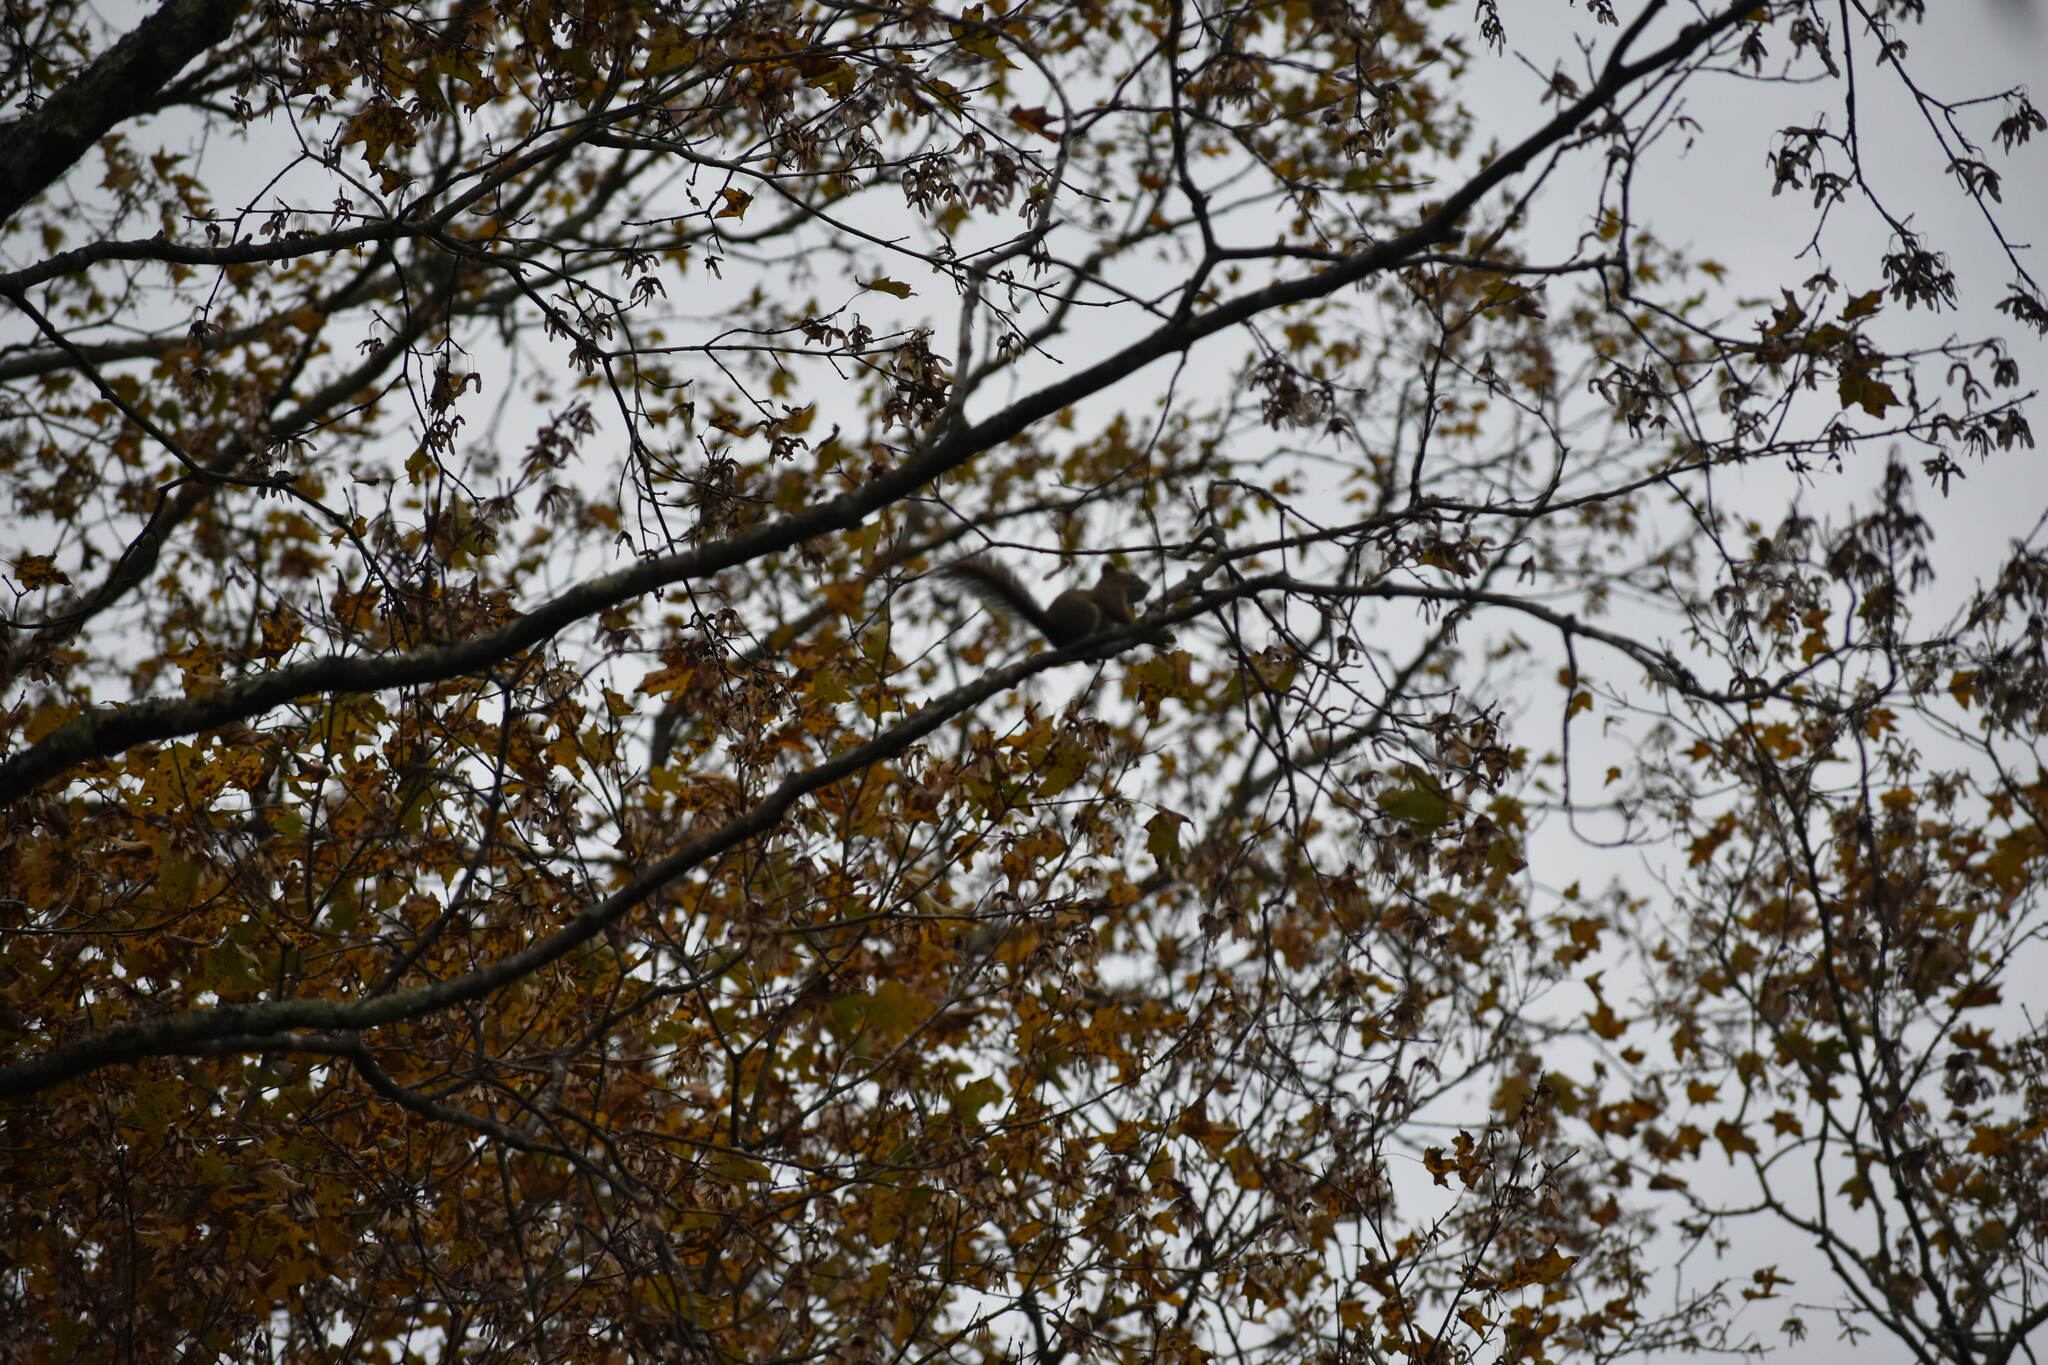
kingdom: Animalia
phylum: Chordata
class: Mammalia
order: Rodentia
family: Sciuridae
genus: Tamiasciurus
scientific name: Tamiasciurus hudsonicus
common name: Red squirrel
